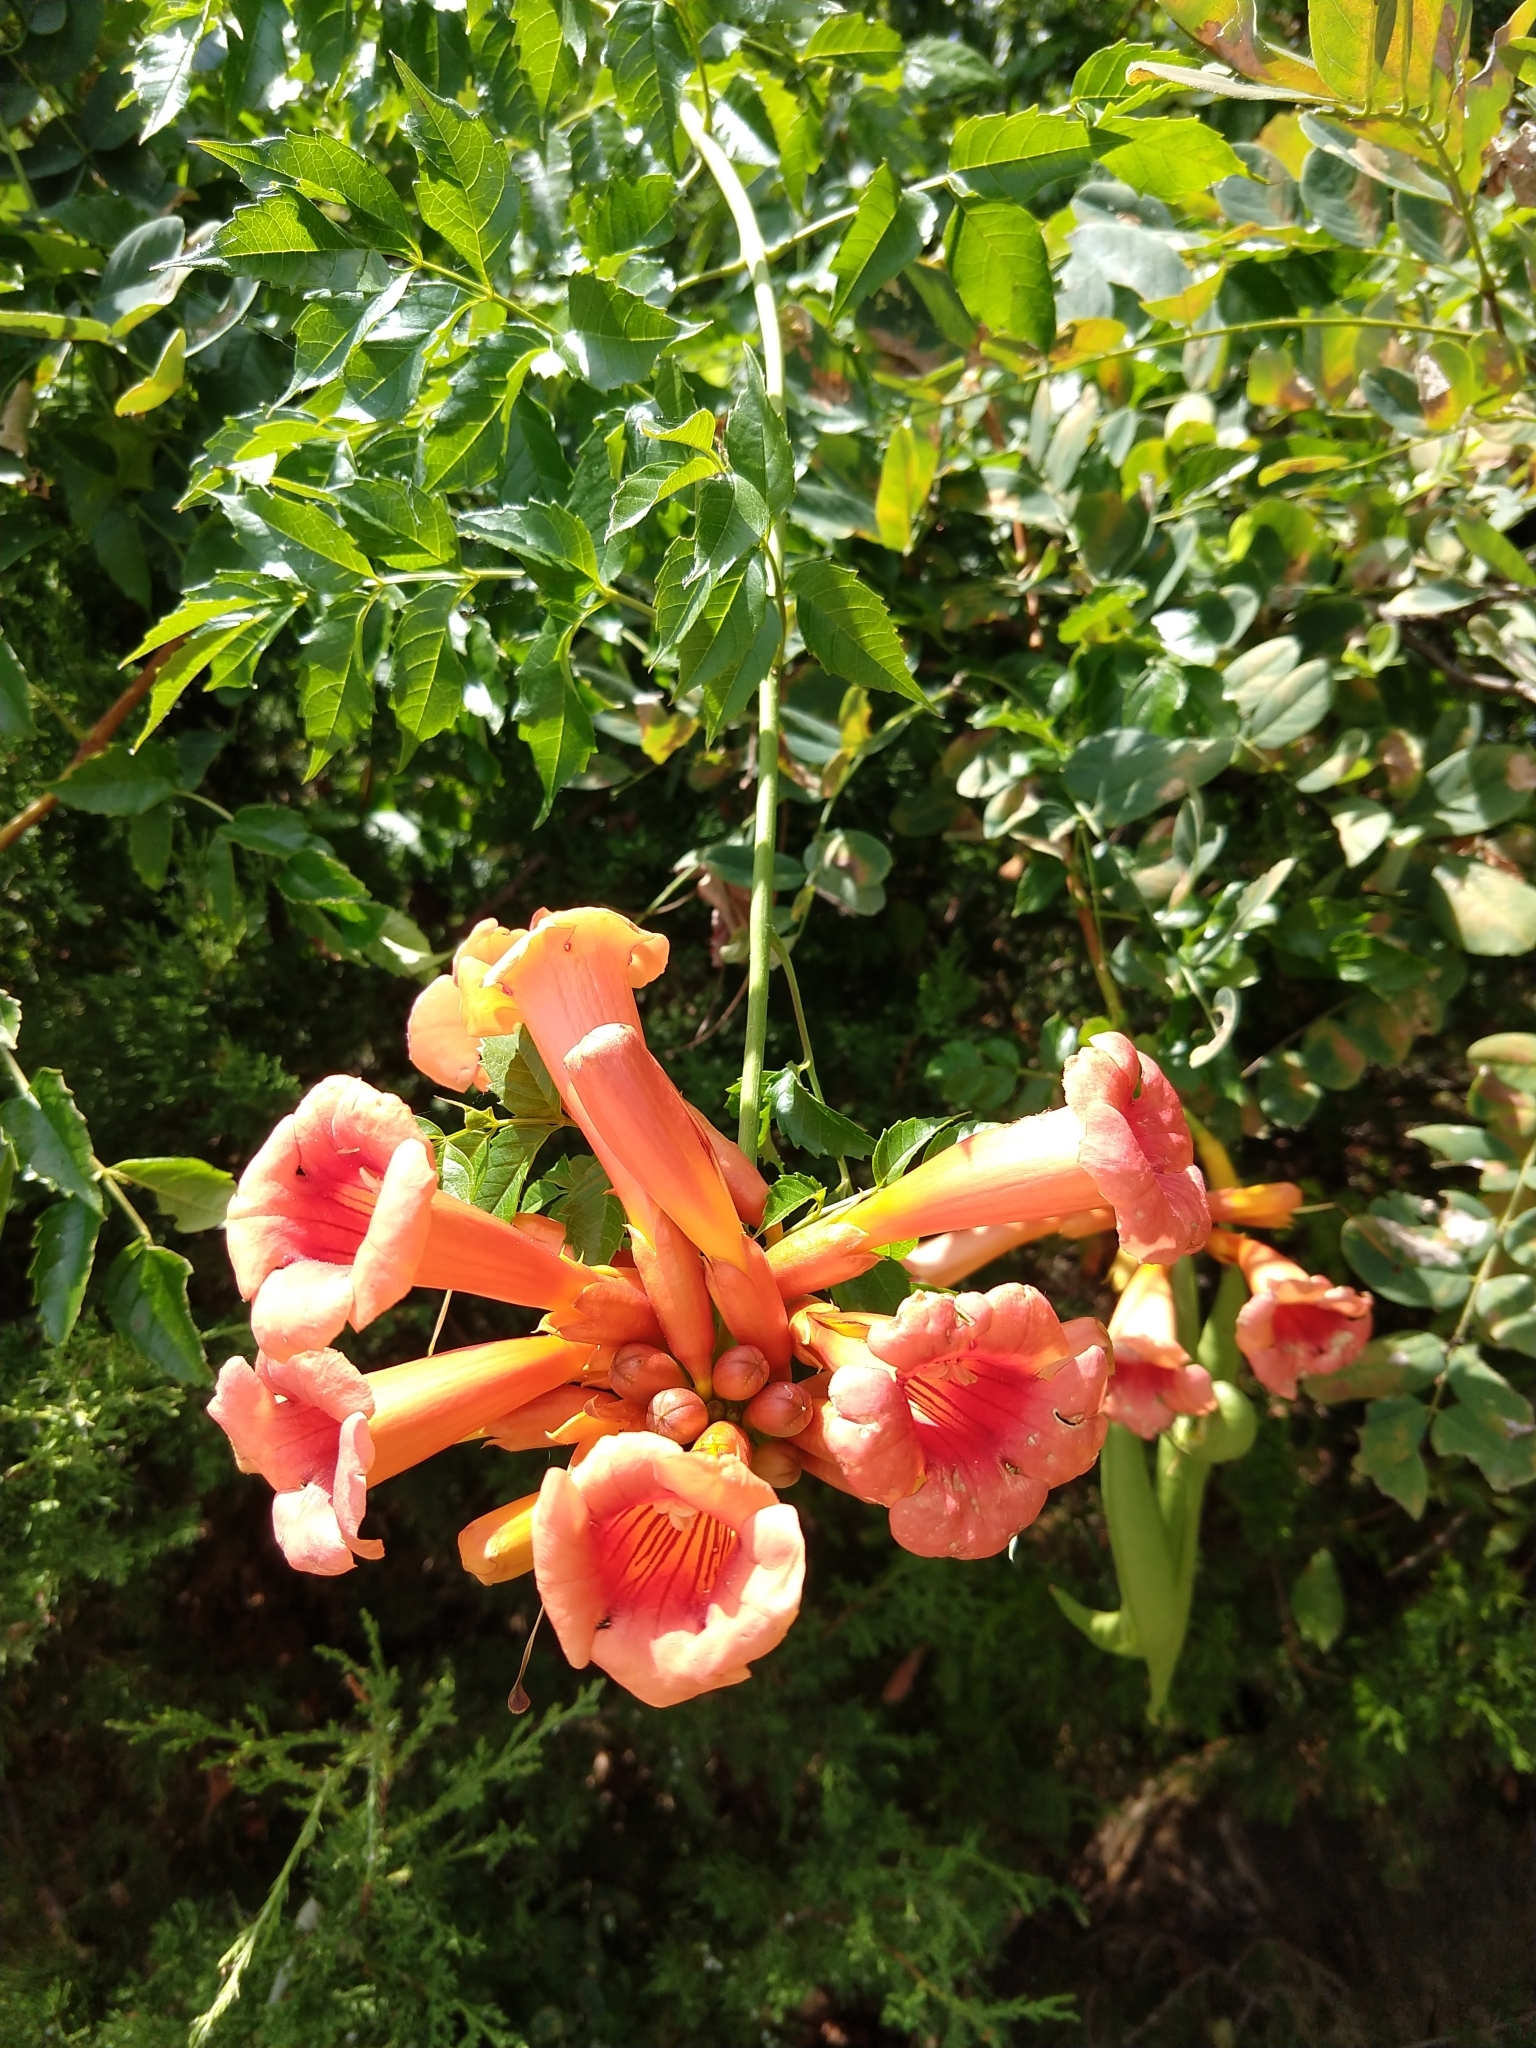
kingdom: Plantae
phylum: Tracheophyta
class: Magnoliopsida
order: Lamiales
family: Bignoniaceae
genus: Campsis
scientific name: Campsis radicans
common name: Trumpet-creeper
